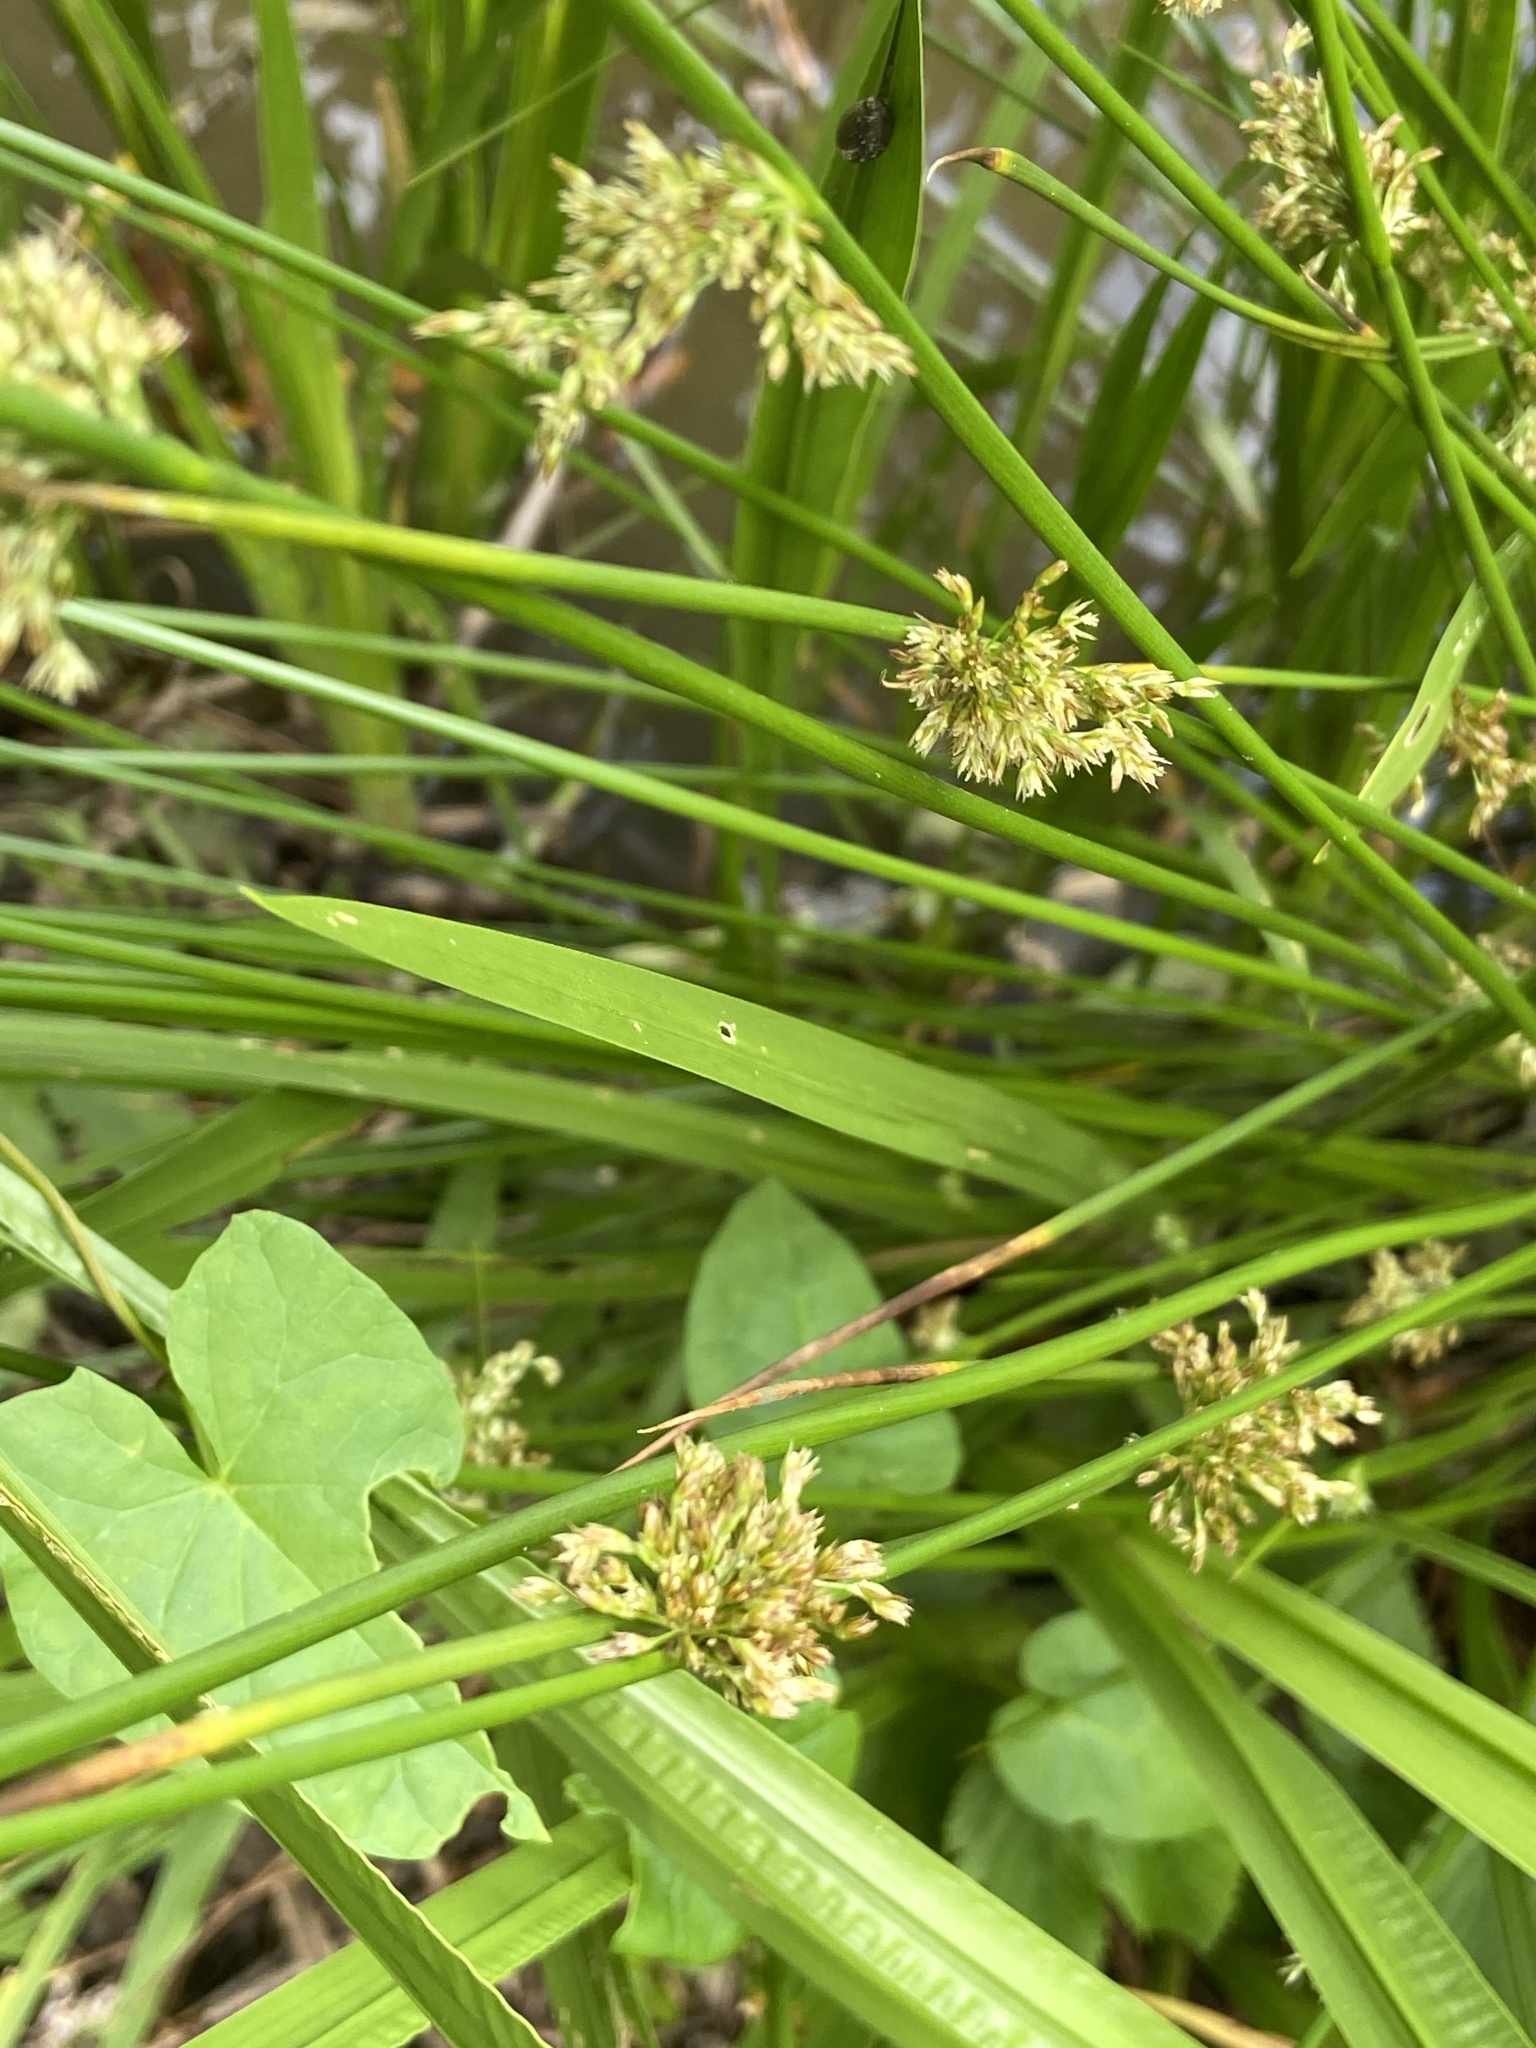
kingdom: Plantae
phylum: Tracheophyta
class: Liliopsida
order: Poales
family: Juncaceae
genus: Juncus
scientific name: Juncus effusus
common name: Soft rush
